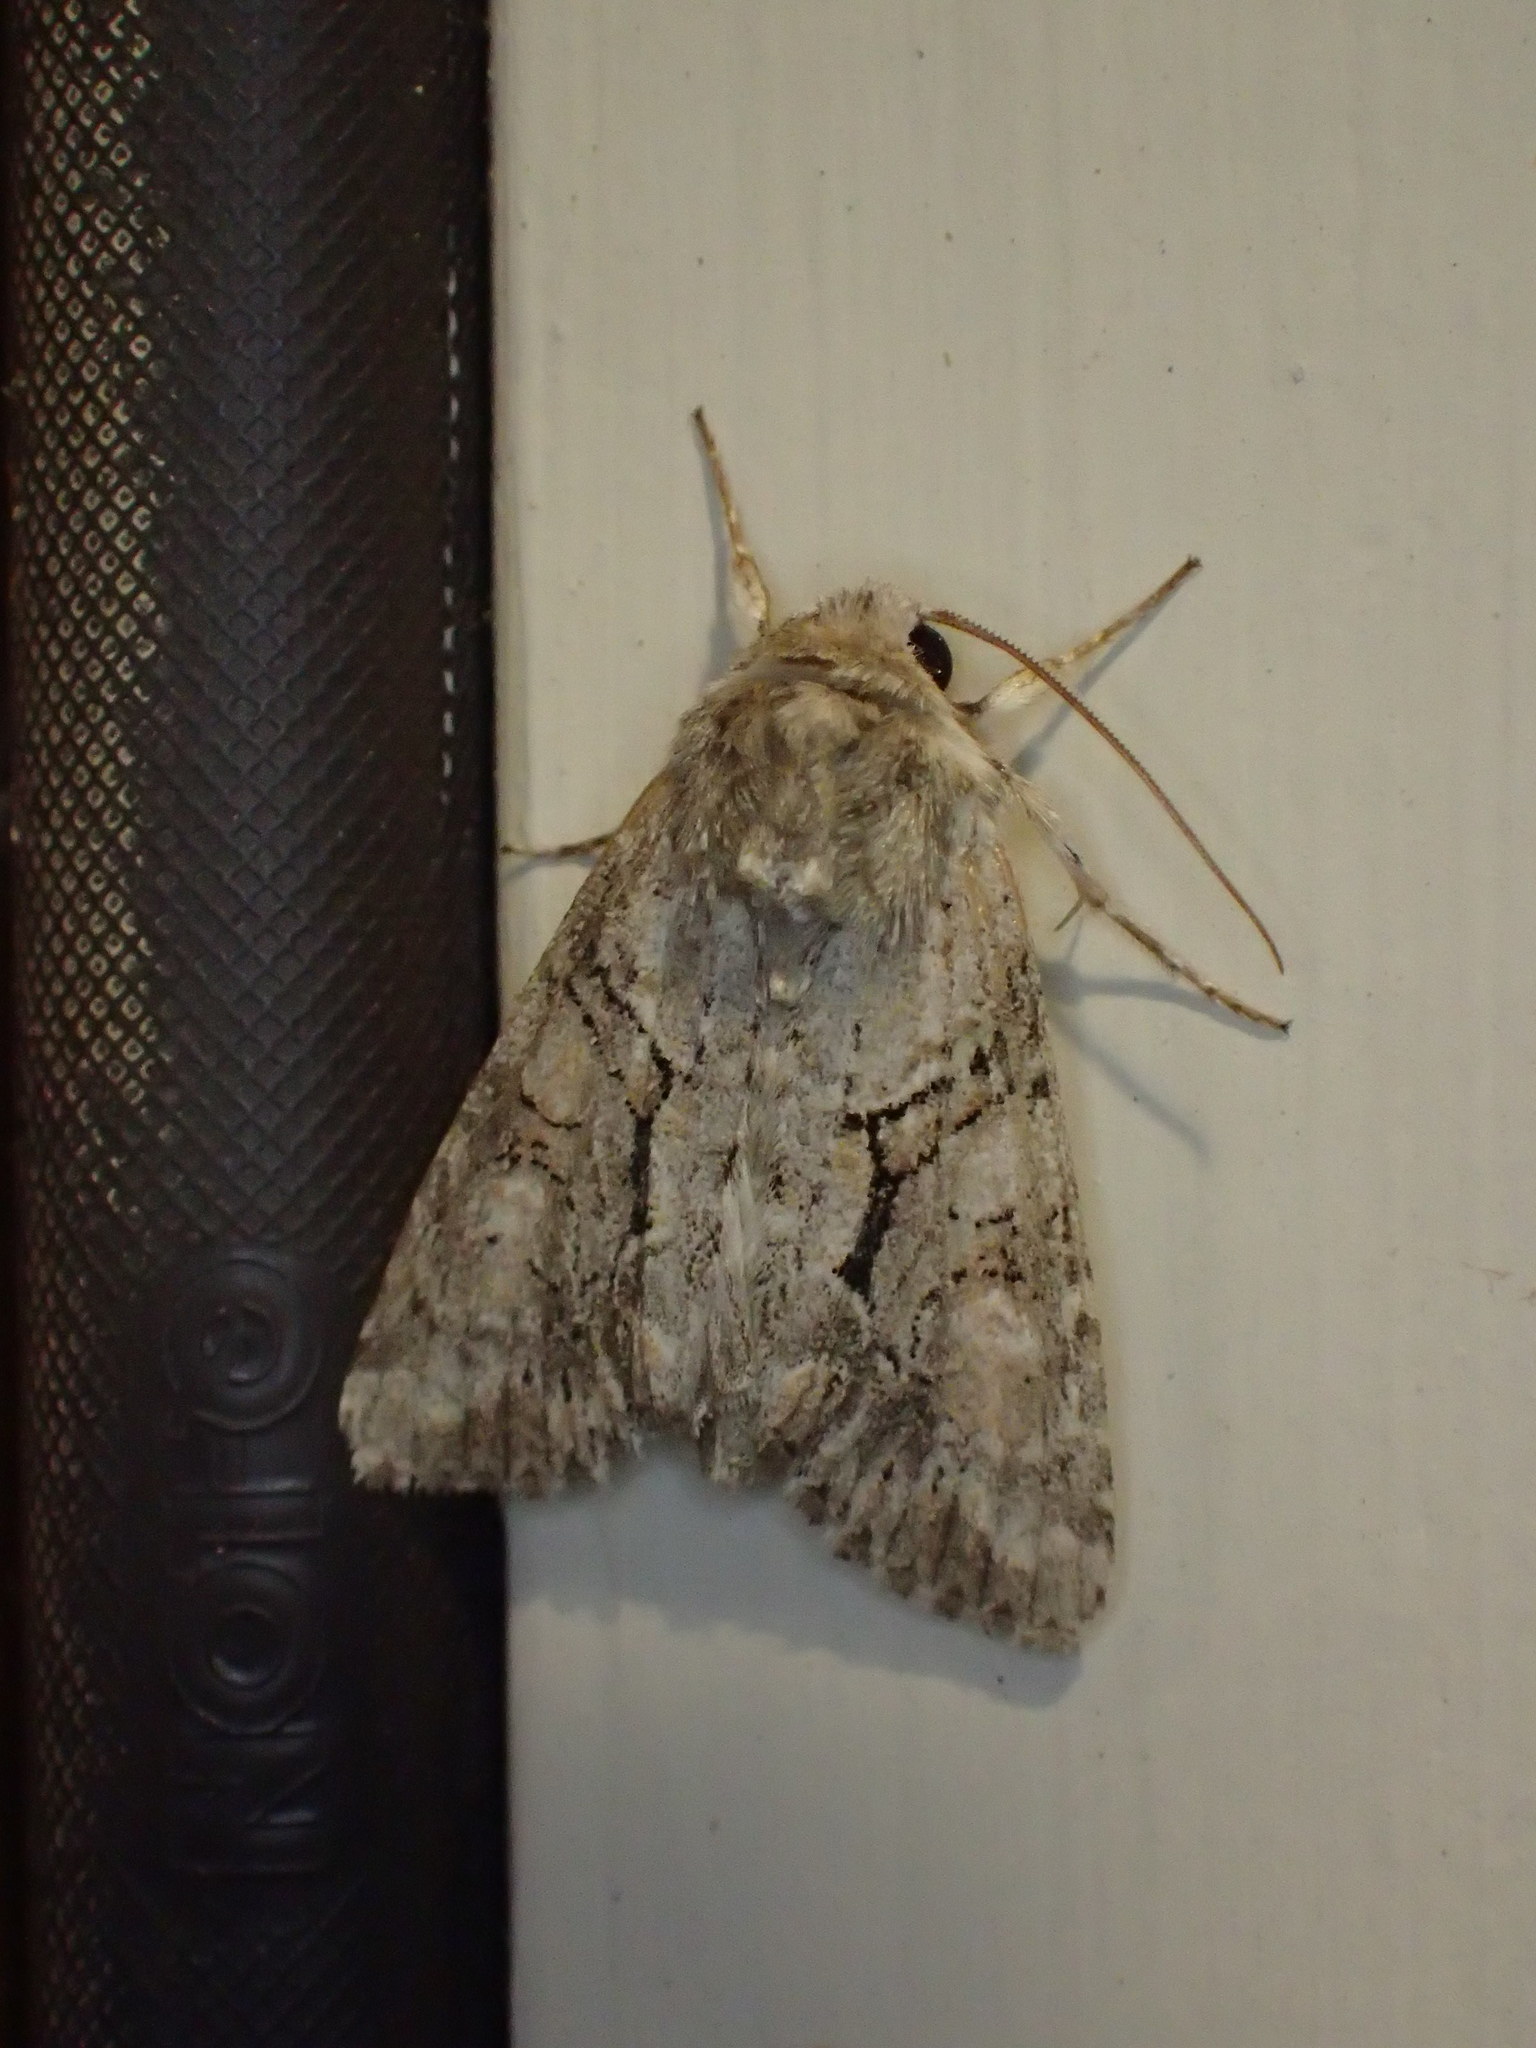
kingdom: Animalia
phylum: Arthropoda
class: Insecta
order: Lepidoptera
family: Noctuidae
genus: Achatia
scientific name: Achatia distincta
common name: Distinct quaker
